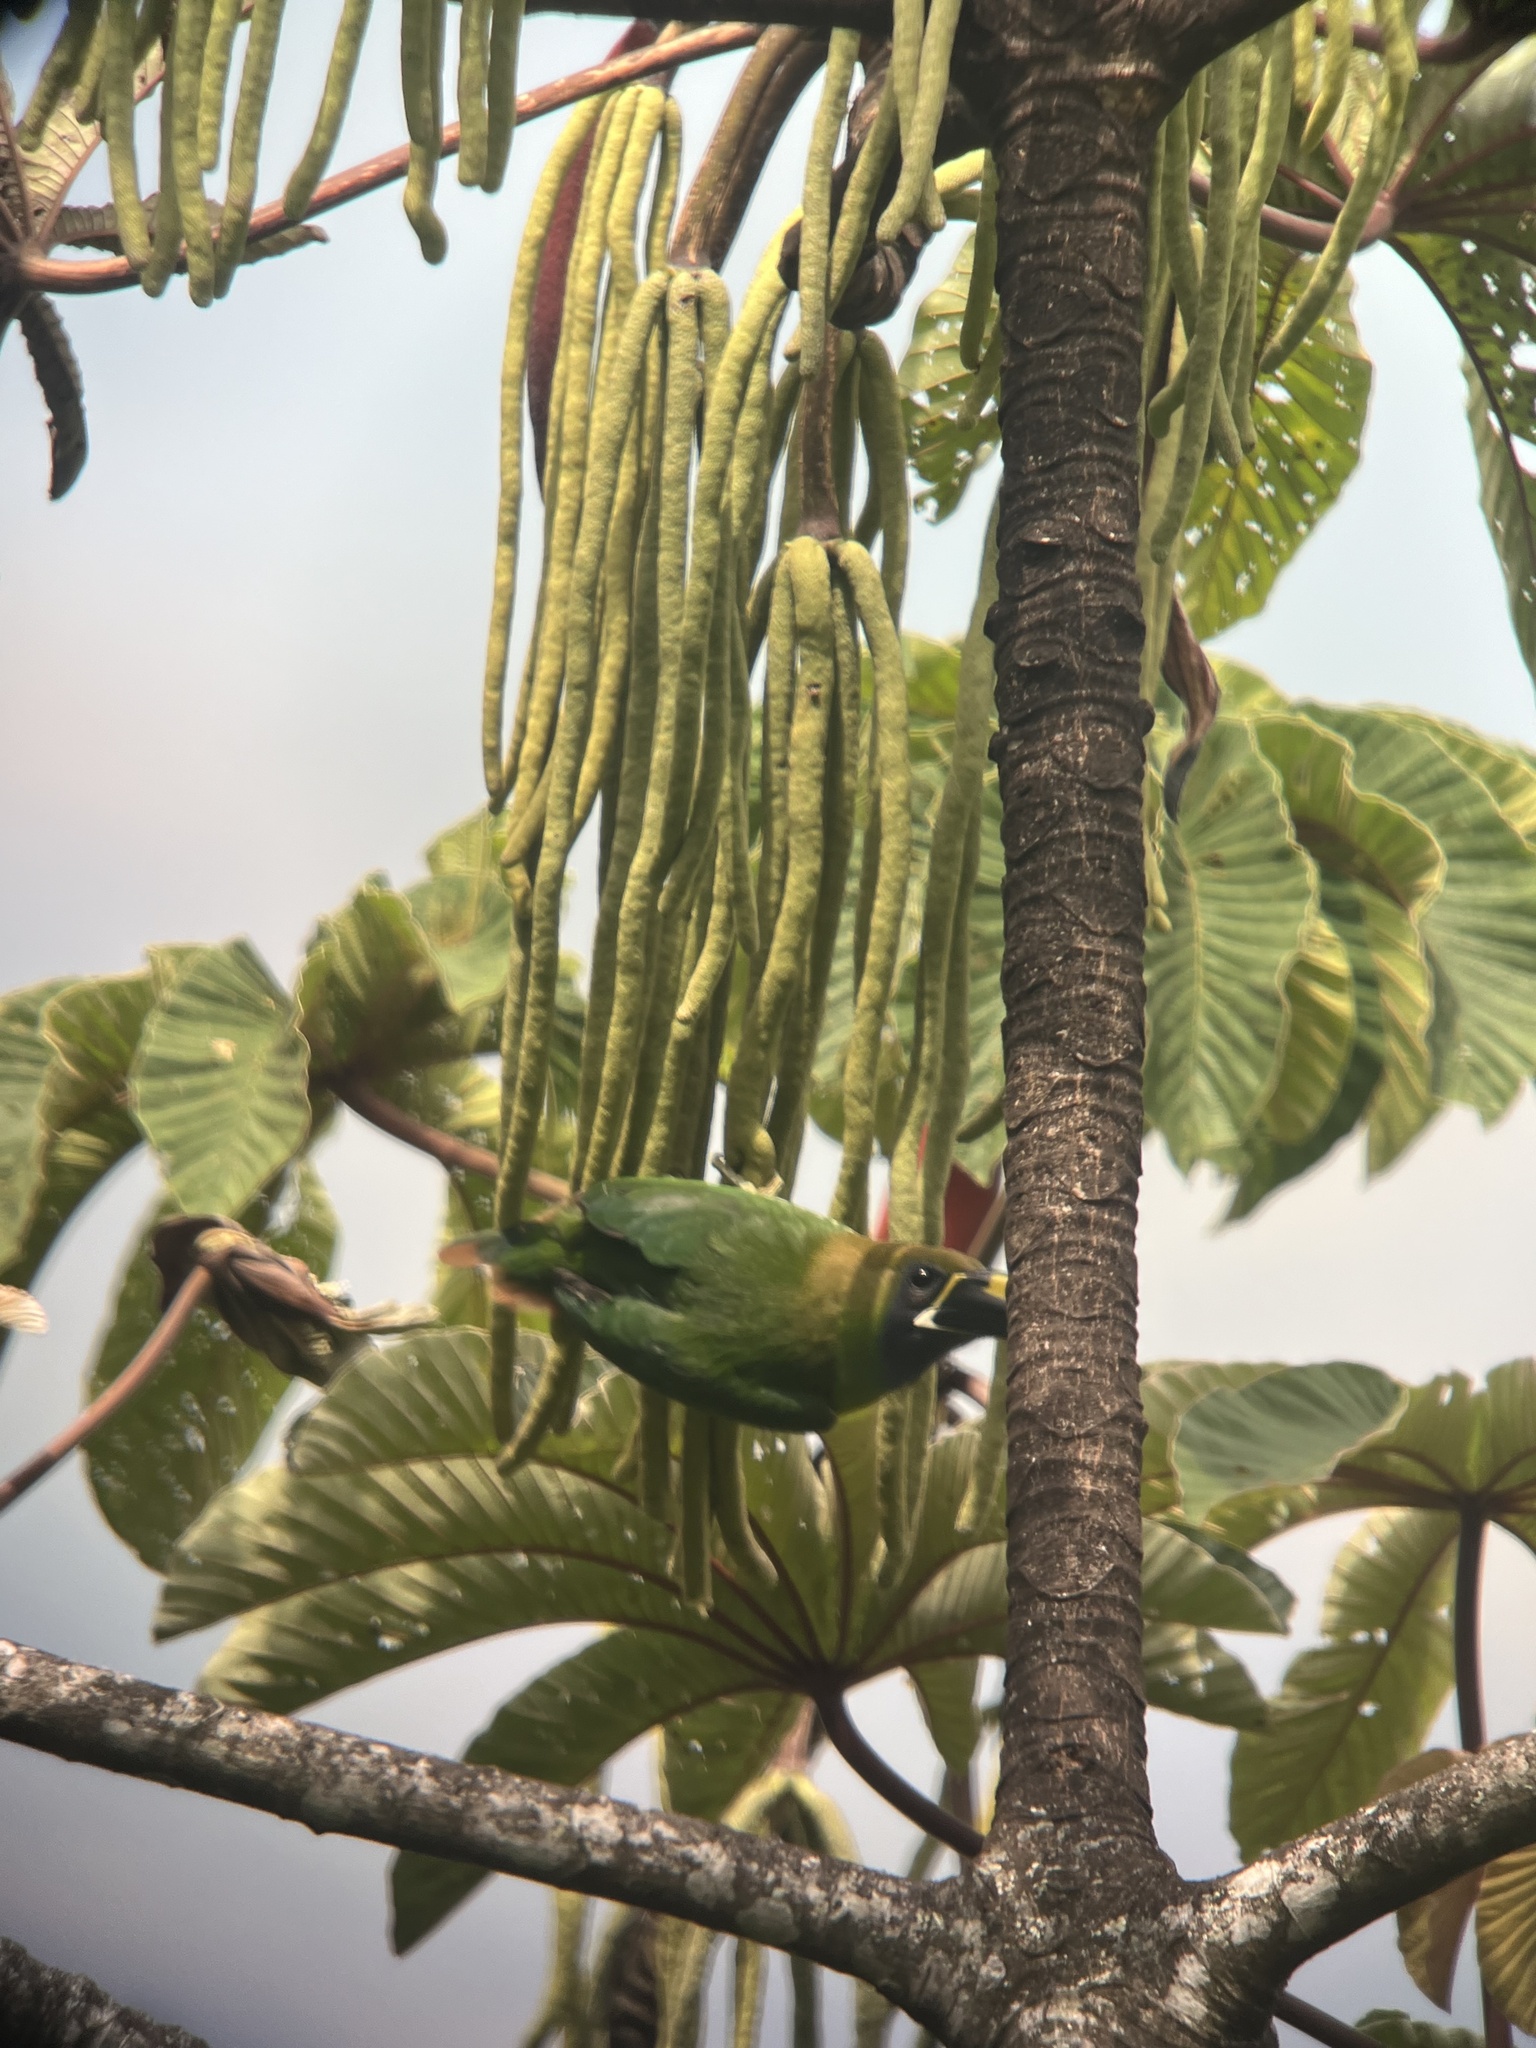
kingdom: Animalia
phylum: Chordata
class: Aves
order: Piciformes
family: Ramphastidae
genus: Aulacorhynchus
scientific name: Aulacorhynchus prasinus
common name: Emerald toucanet
